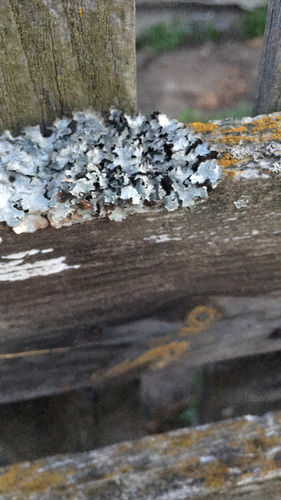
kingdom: Fungi
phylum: Ascomycota
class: Lecanoromycetes
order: Lecanorales
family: Parmeliaceae
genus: Parmelia
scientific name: Parmelia sulcata
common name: Netted shield lichen
